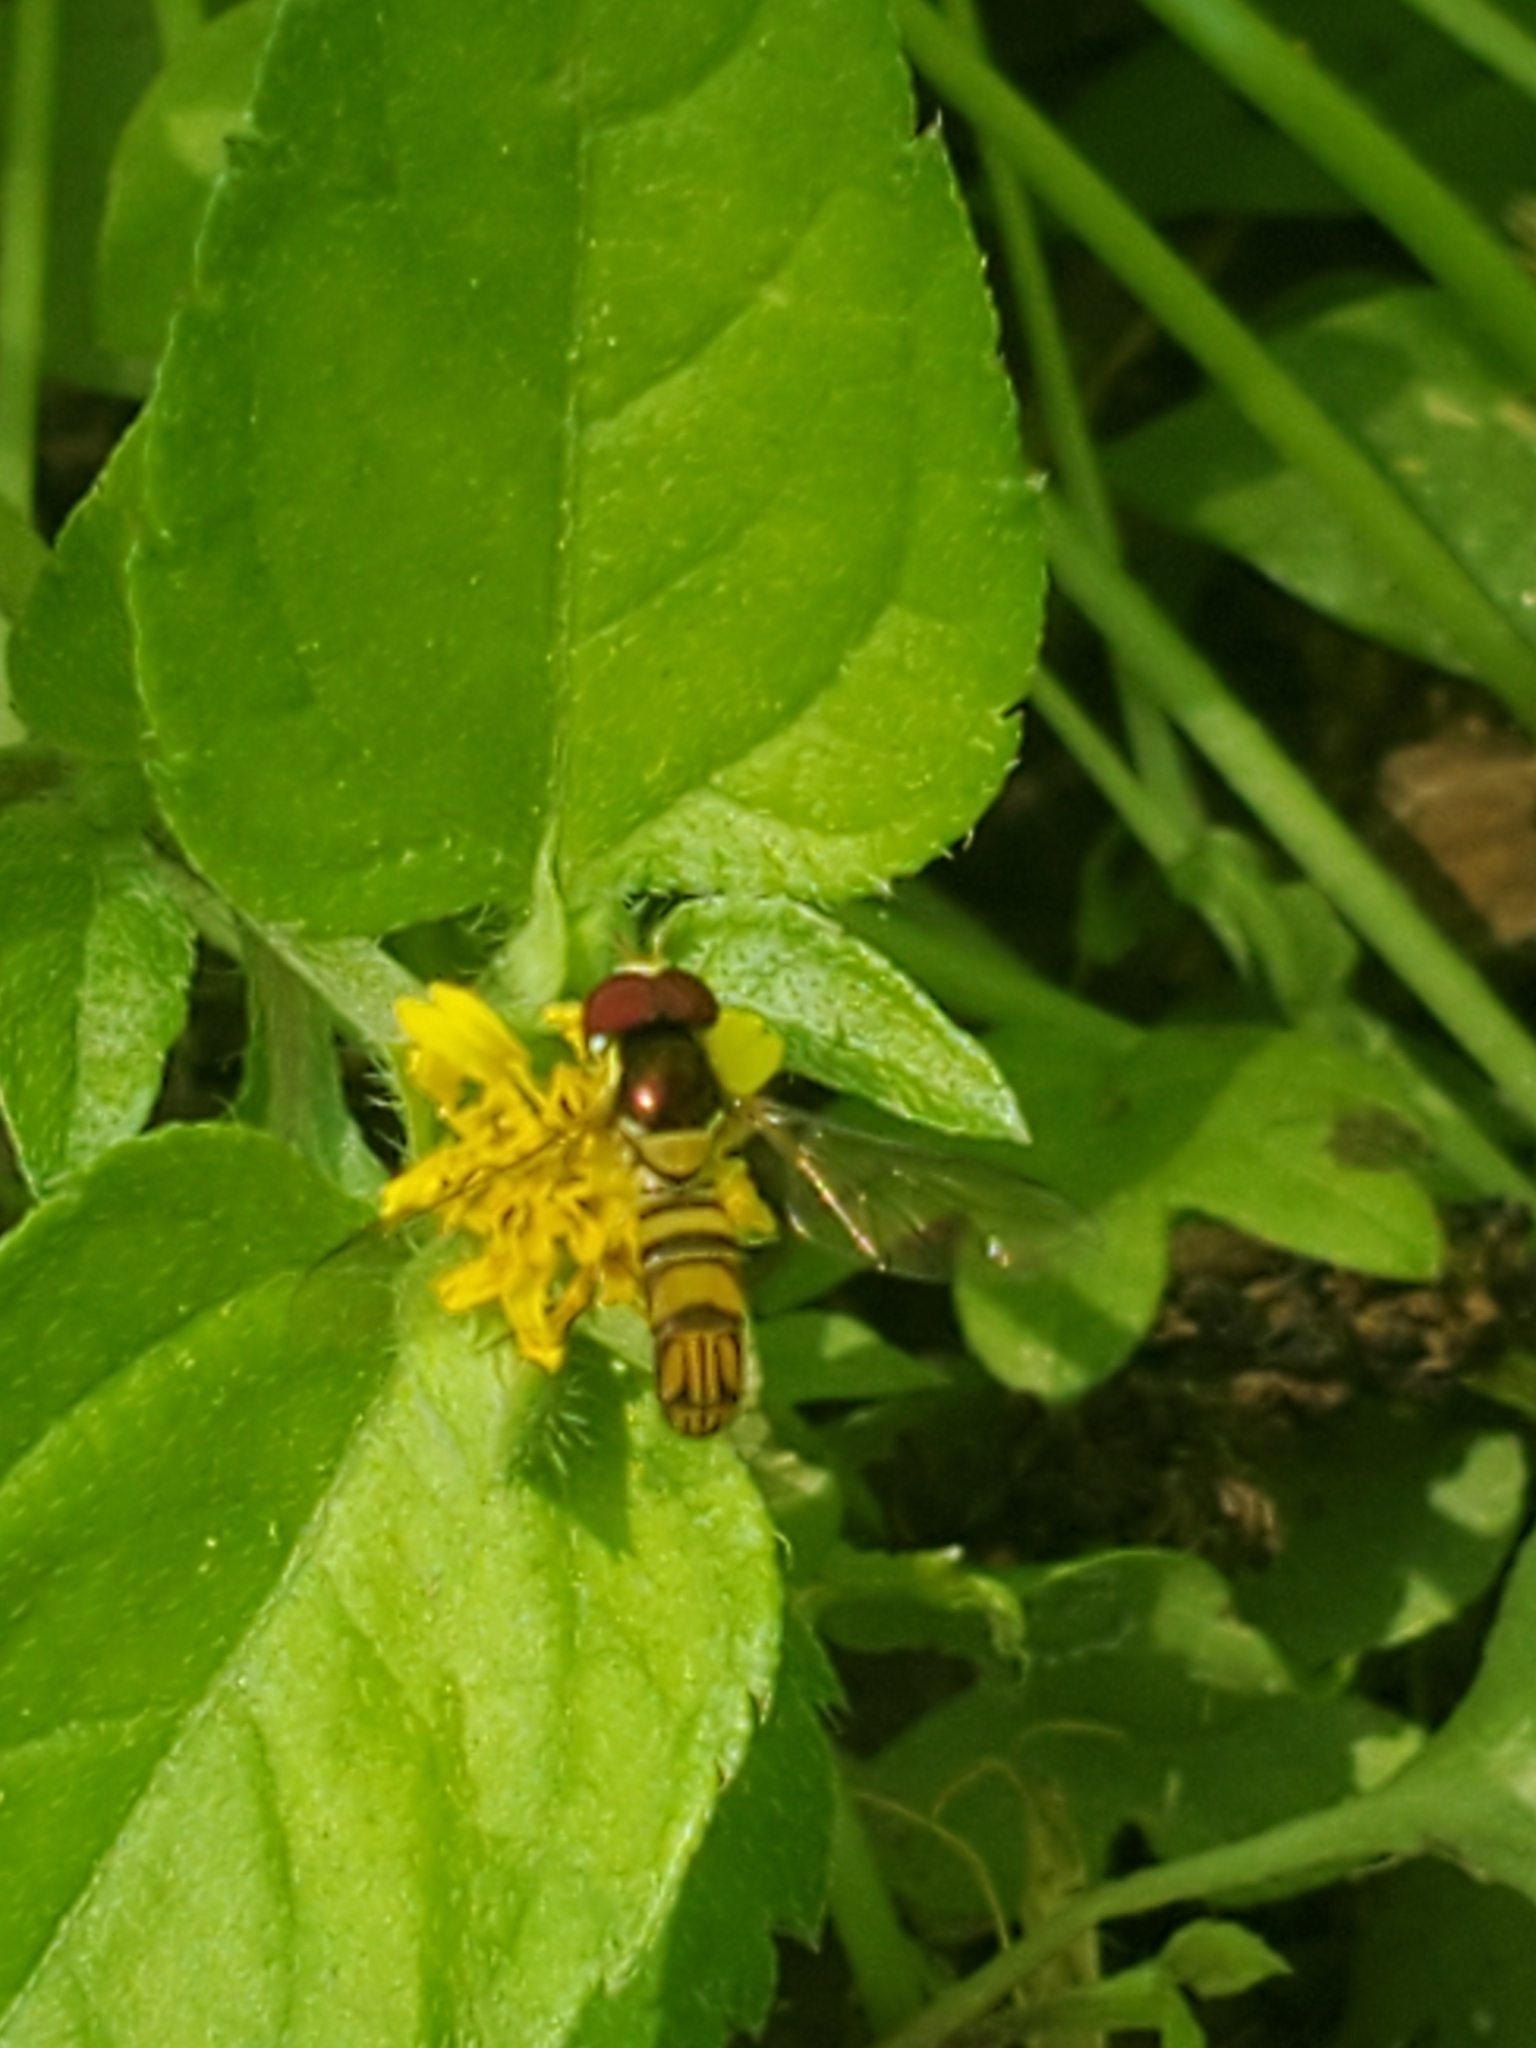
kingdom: Animalia
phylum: Arthropoda
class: Insecta
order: Diptera
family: Syrphidae
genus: Allograpta
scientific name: Allograpta obliqua
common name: Common oblique syrphid
